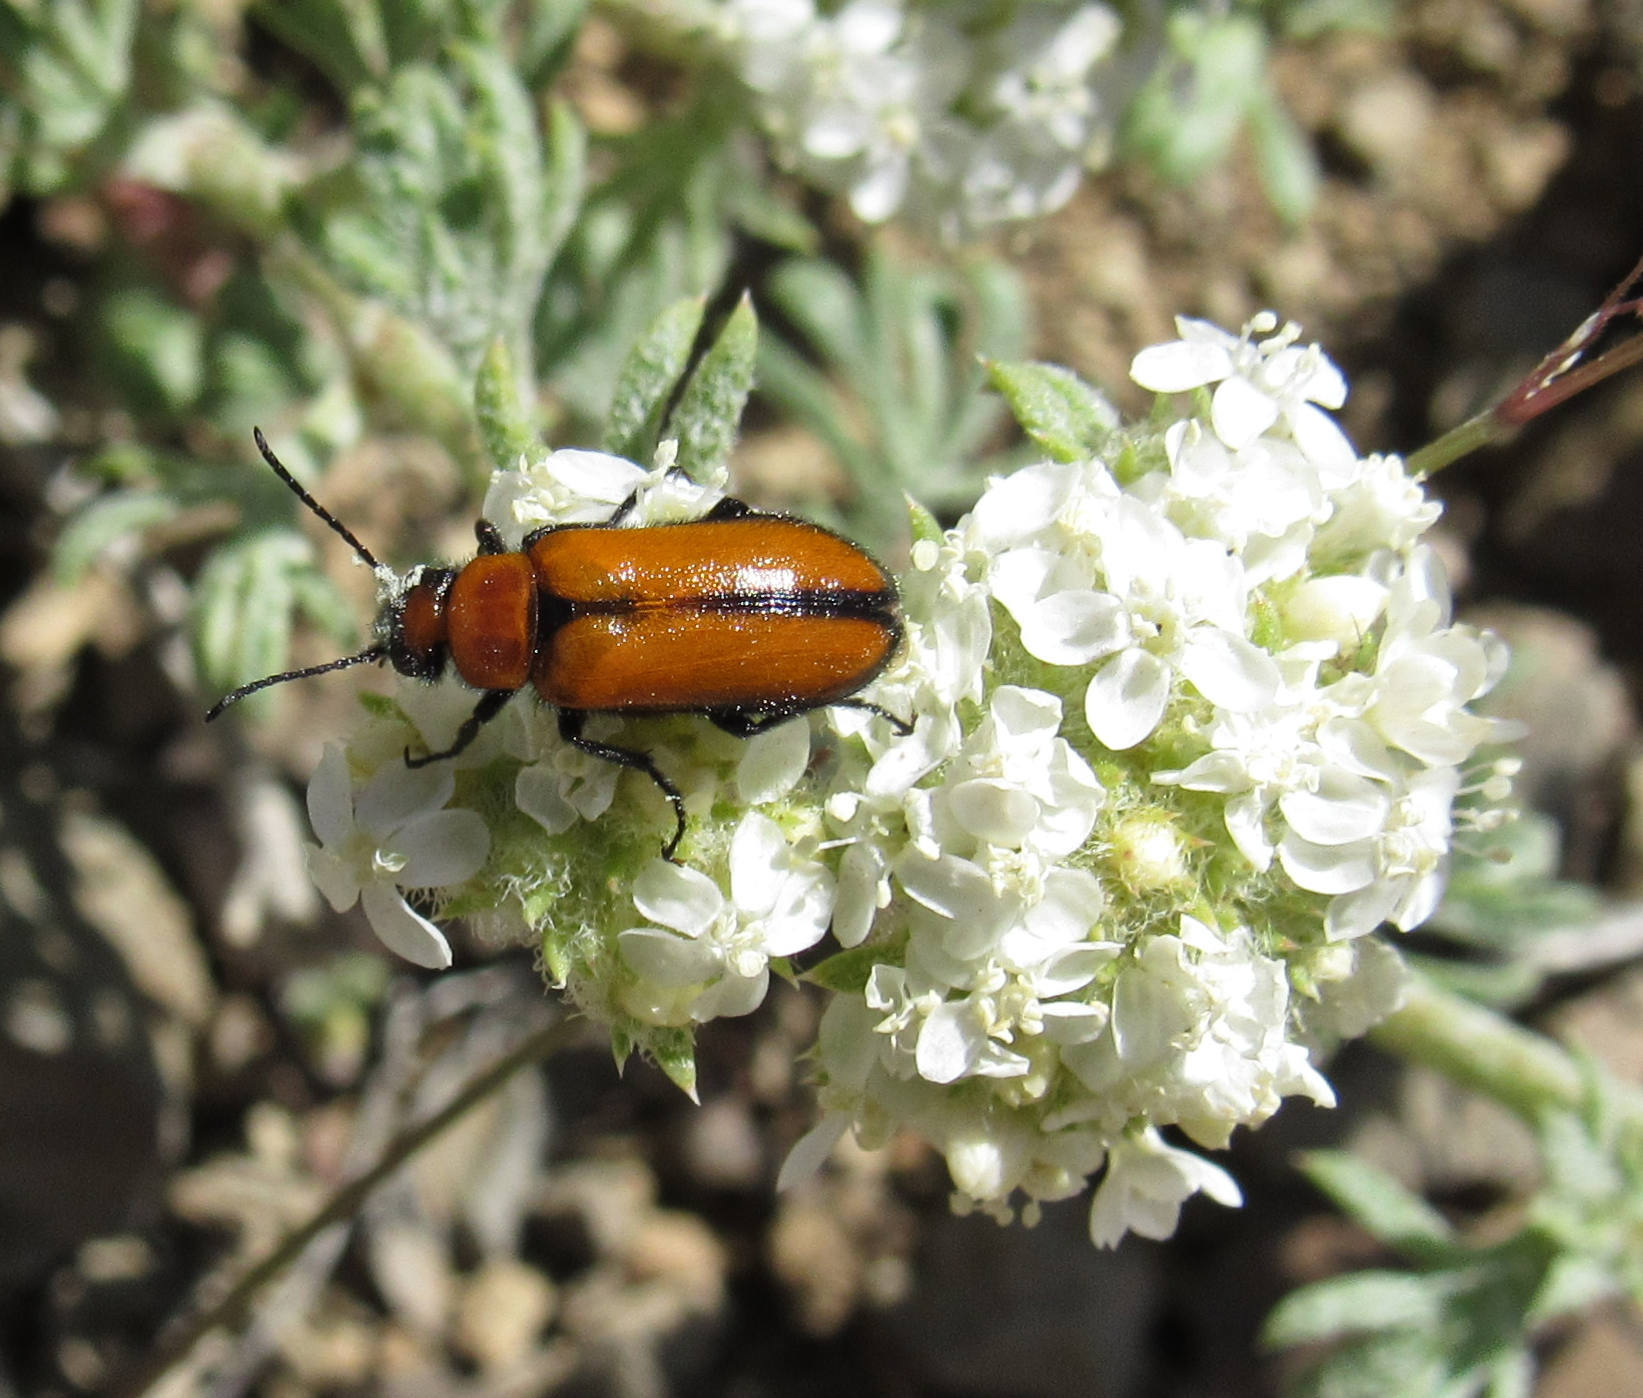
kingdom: Animalia
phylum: Arthropoda
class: Insecta
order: Coleoptera
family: Meloidae
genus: Nemognatha
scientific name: Nemognatha scutellaris
